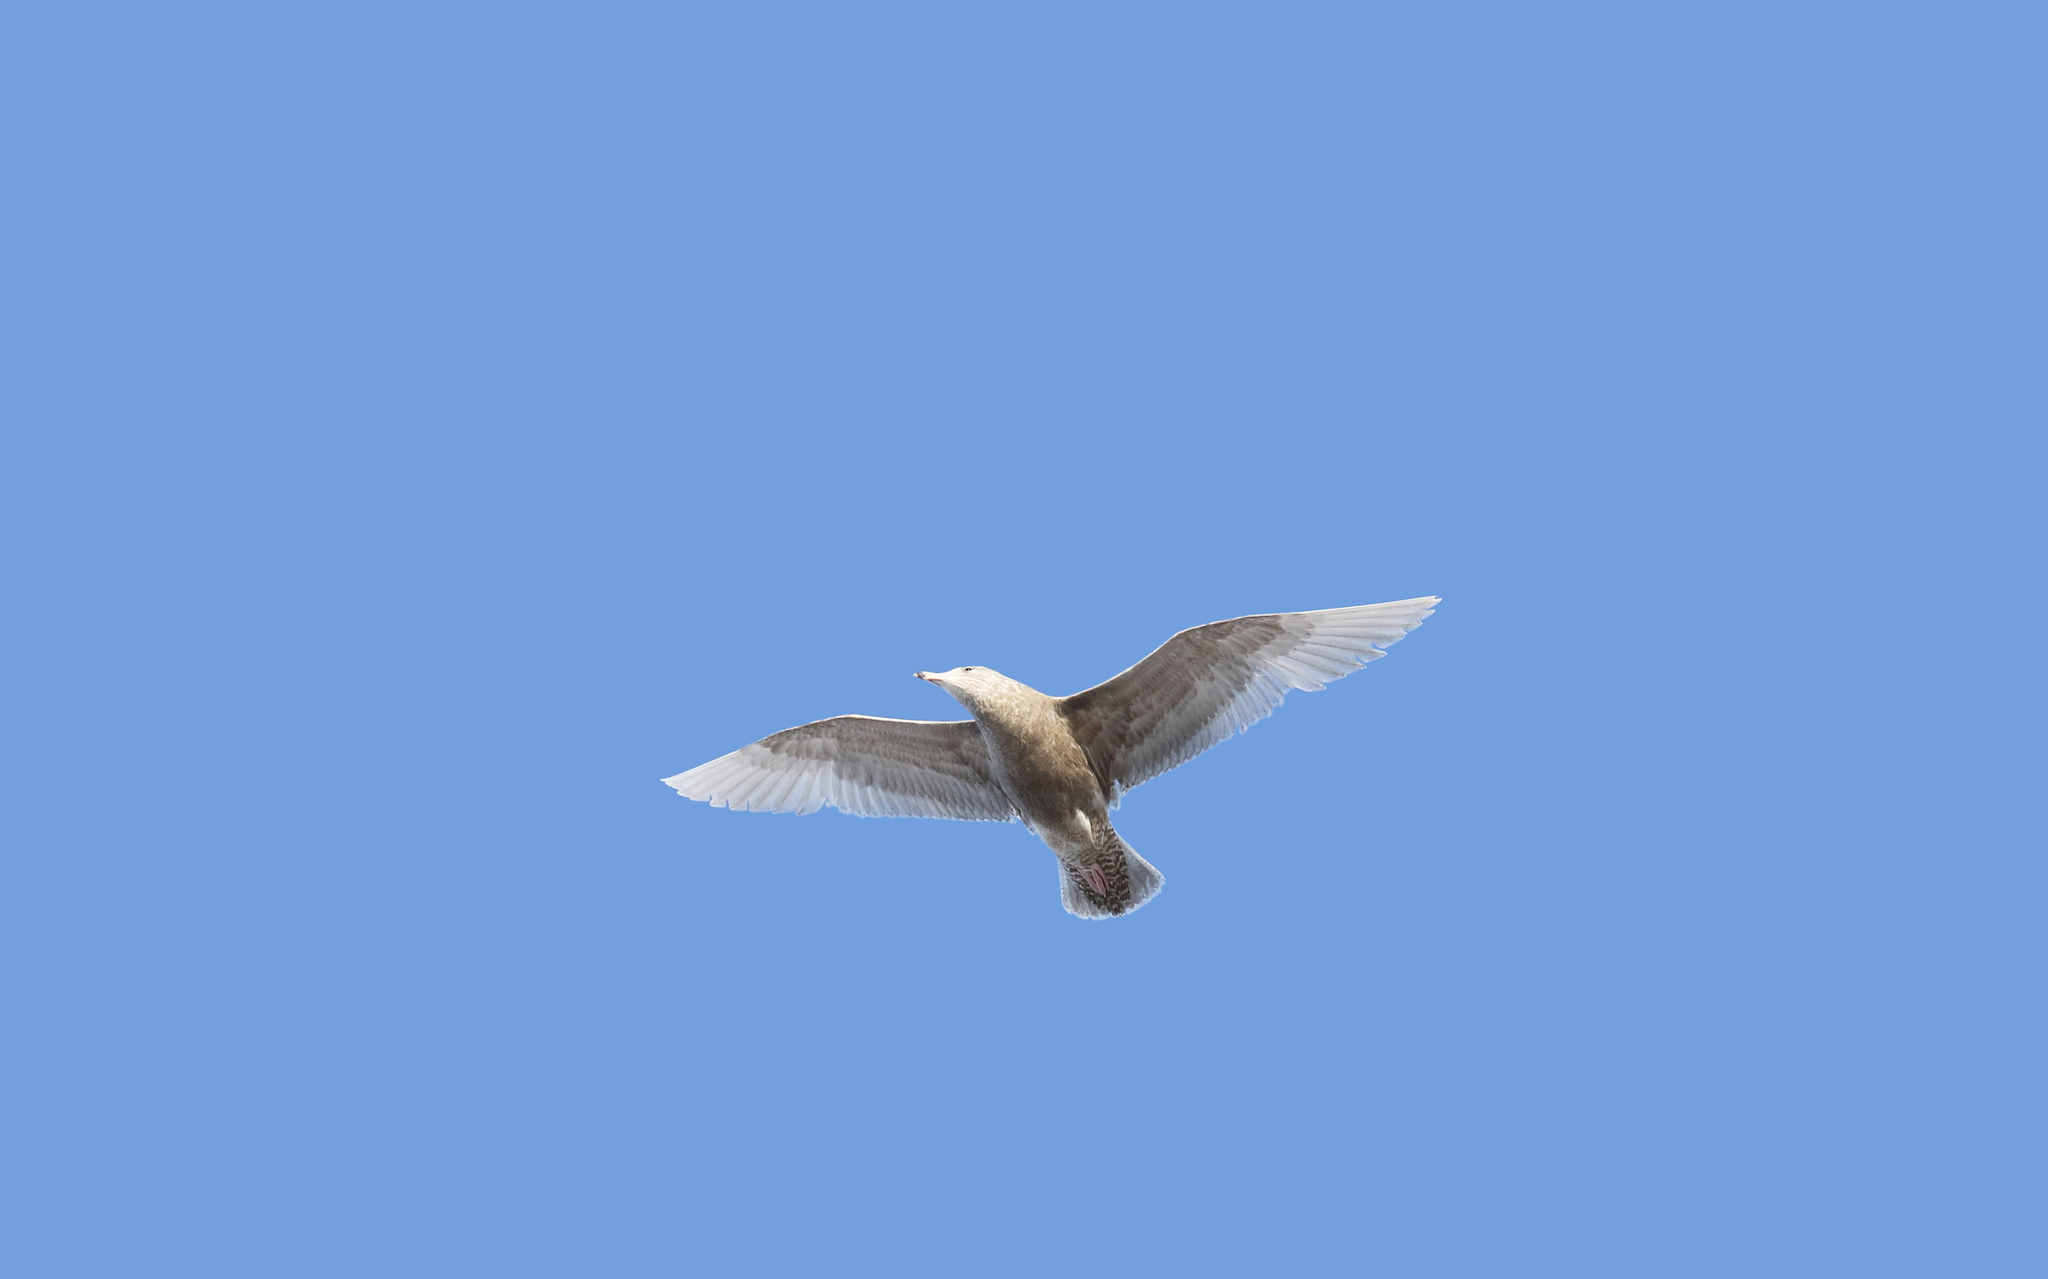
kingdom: Animalia
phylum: Chordata
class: Aves
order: Charadriiformes
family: Laridae
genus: Larus
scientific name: Larus hyperboreus
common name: Glaucous gull
